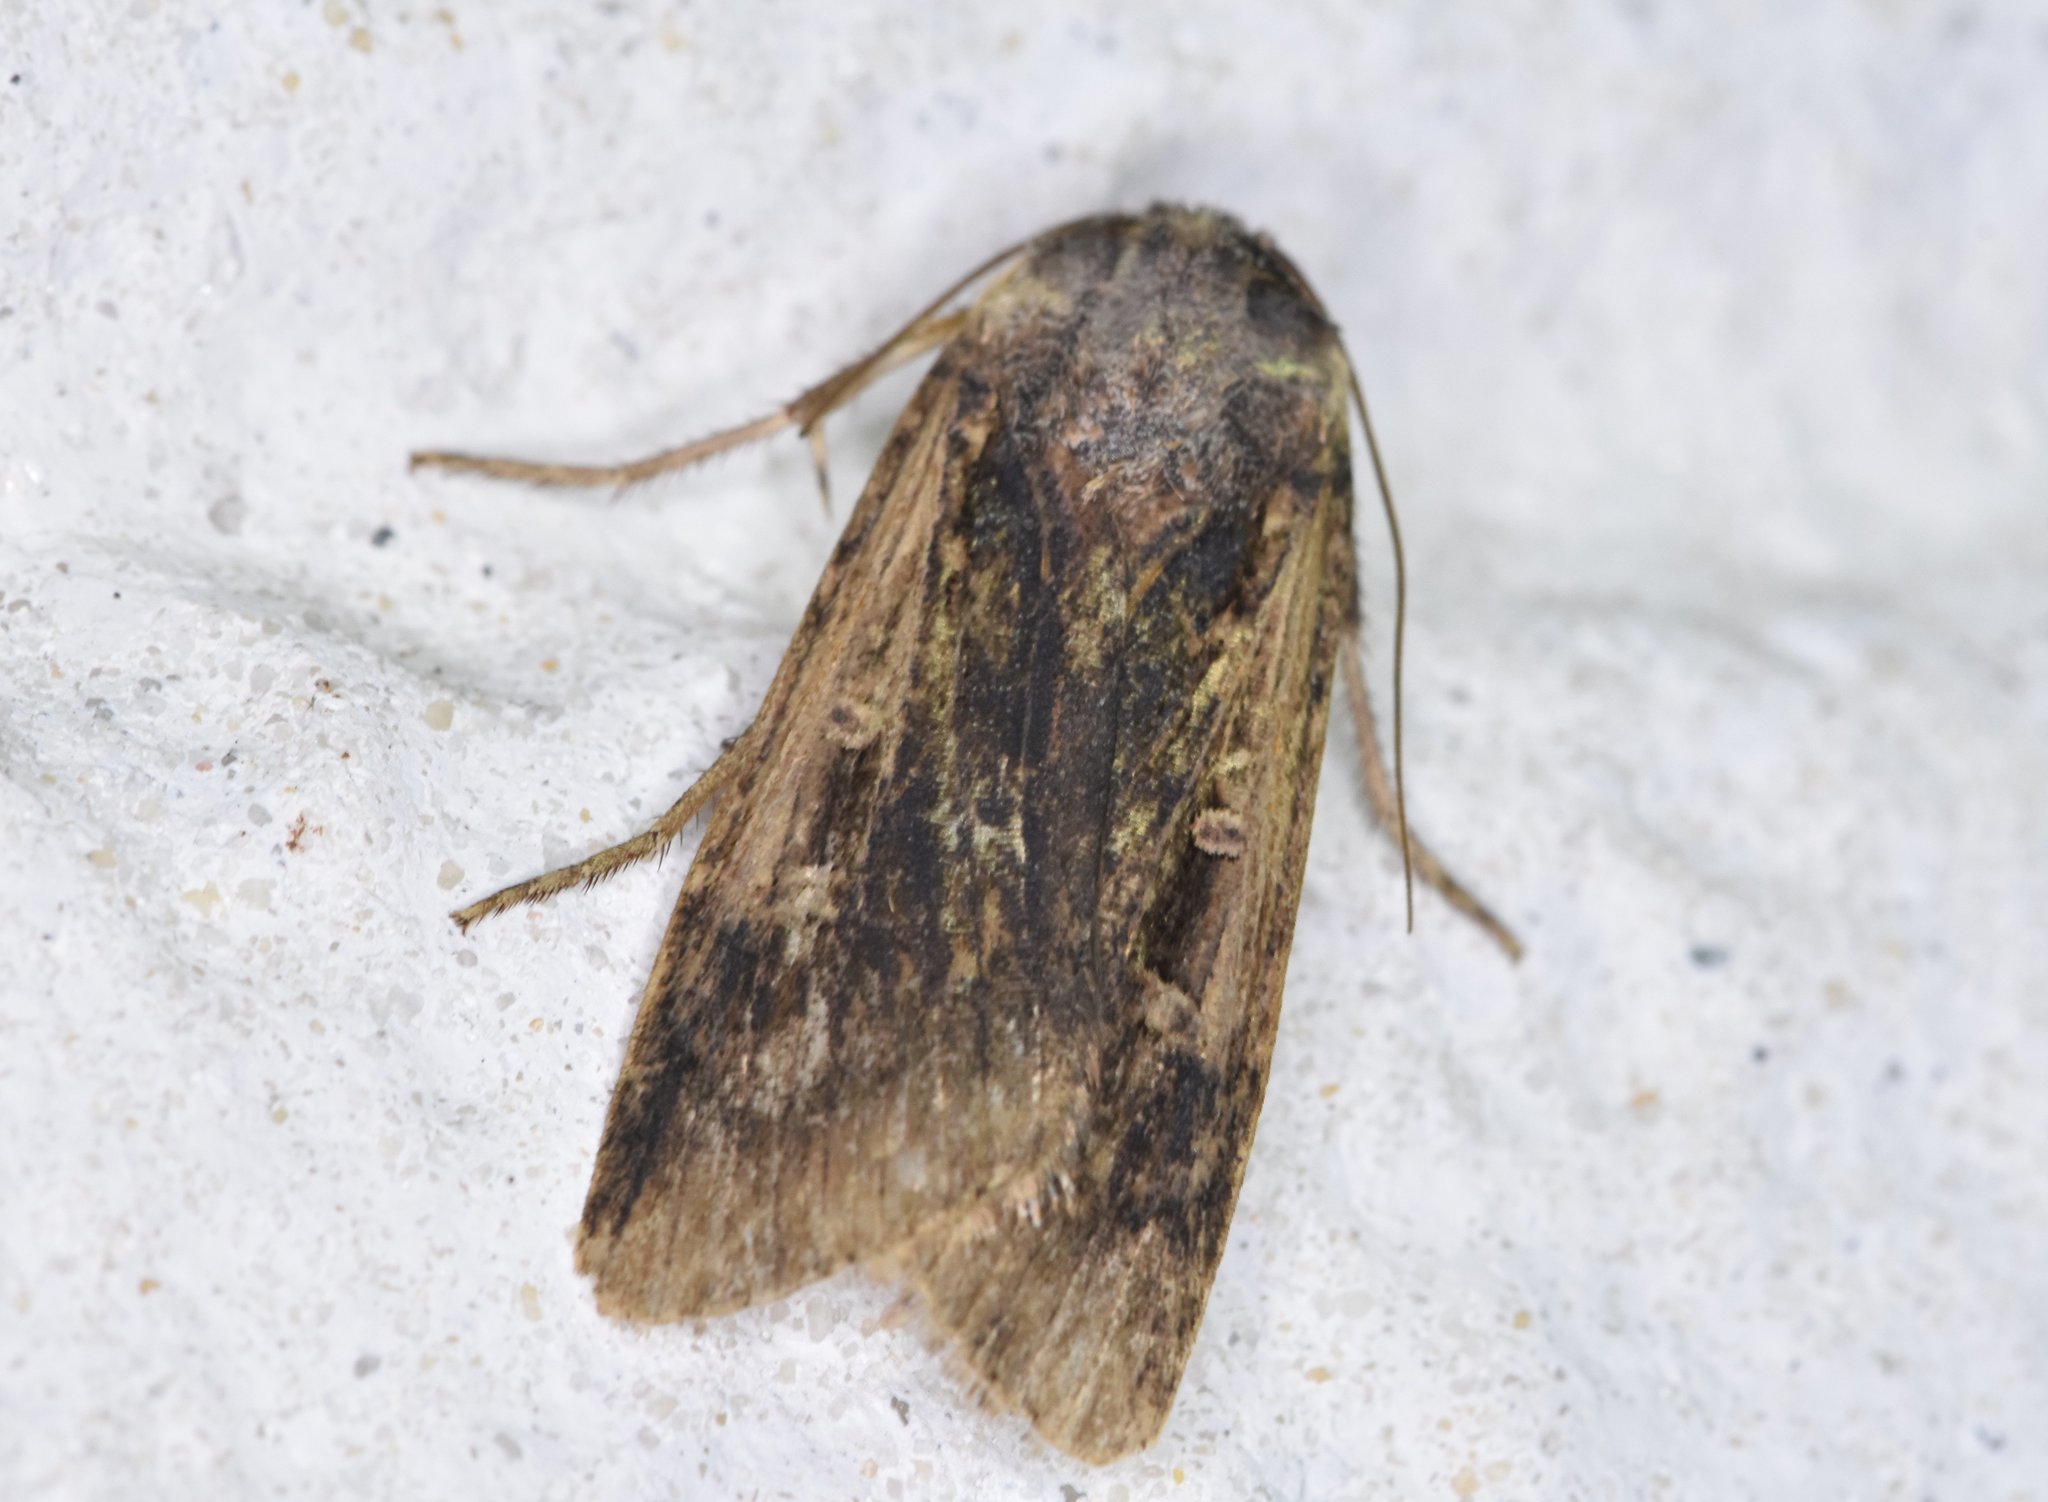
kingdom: Animalia
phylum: Arthropoda
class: Insecta
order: Lepidoptera
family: Noctuidae
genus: Feltia
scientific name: Feltia subterranea
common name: Granulate cutworm
